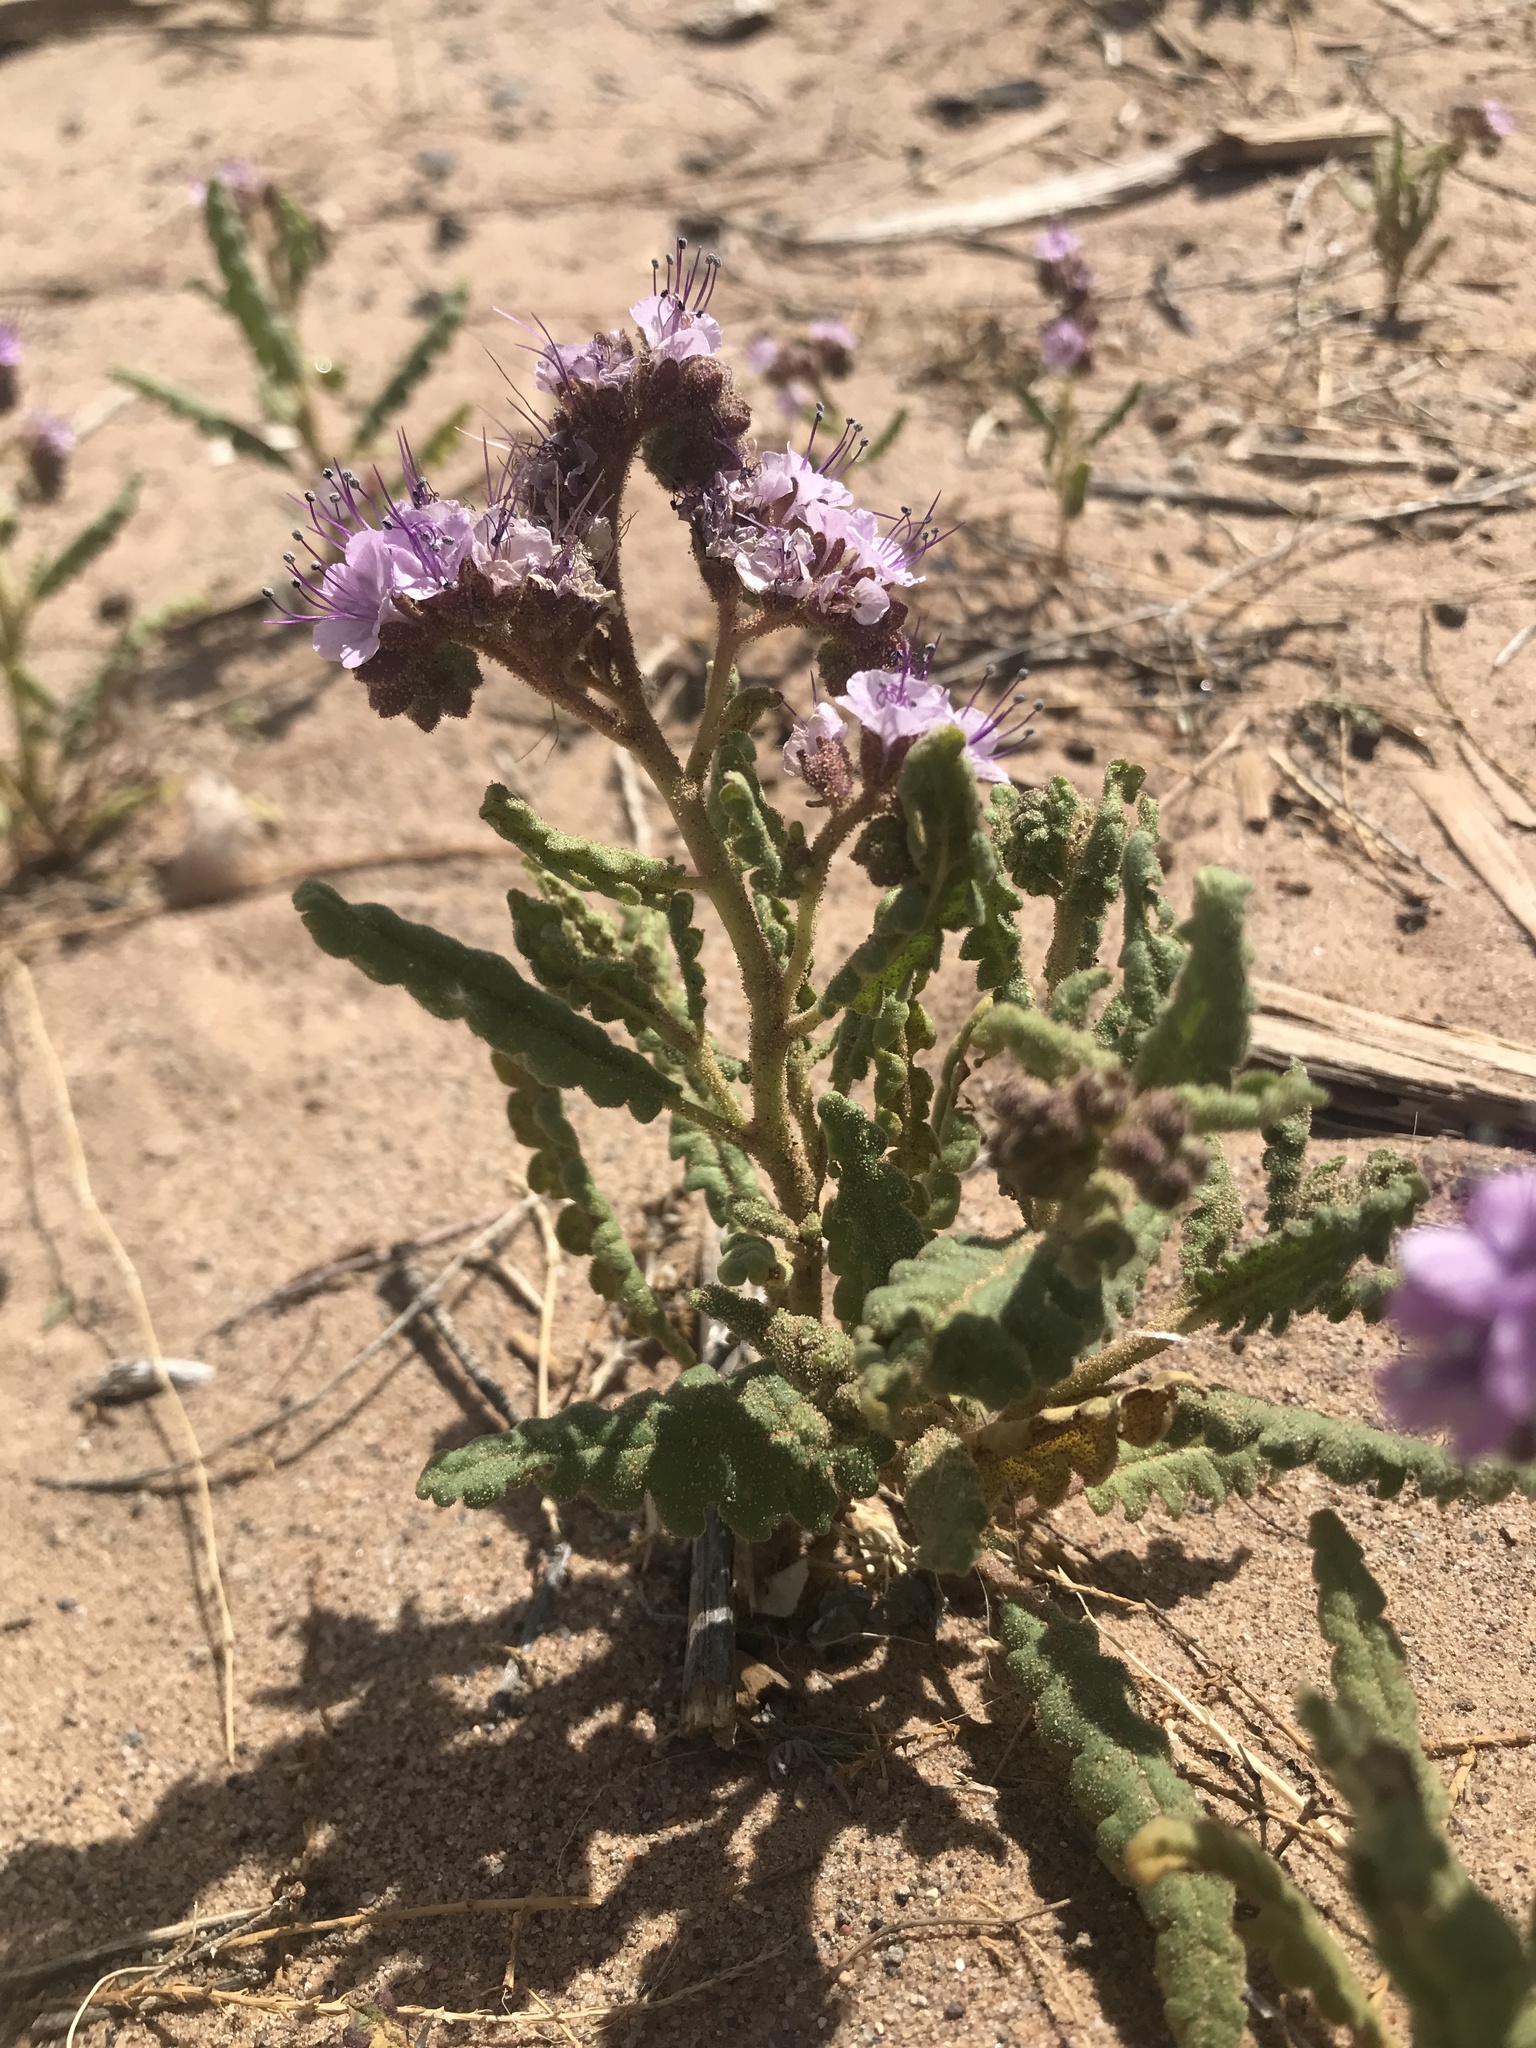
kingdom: Plantae
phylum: Tracheophyta
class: Magnoliopsida
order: Boraginales
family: Hydrophyllaceae
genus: Phacelia
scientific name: Phacelia integrifolia
